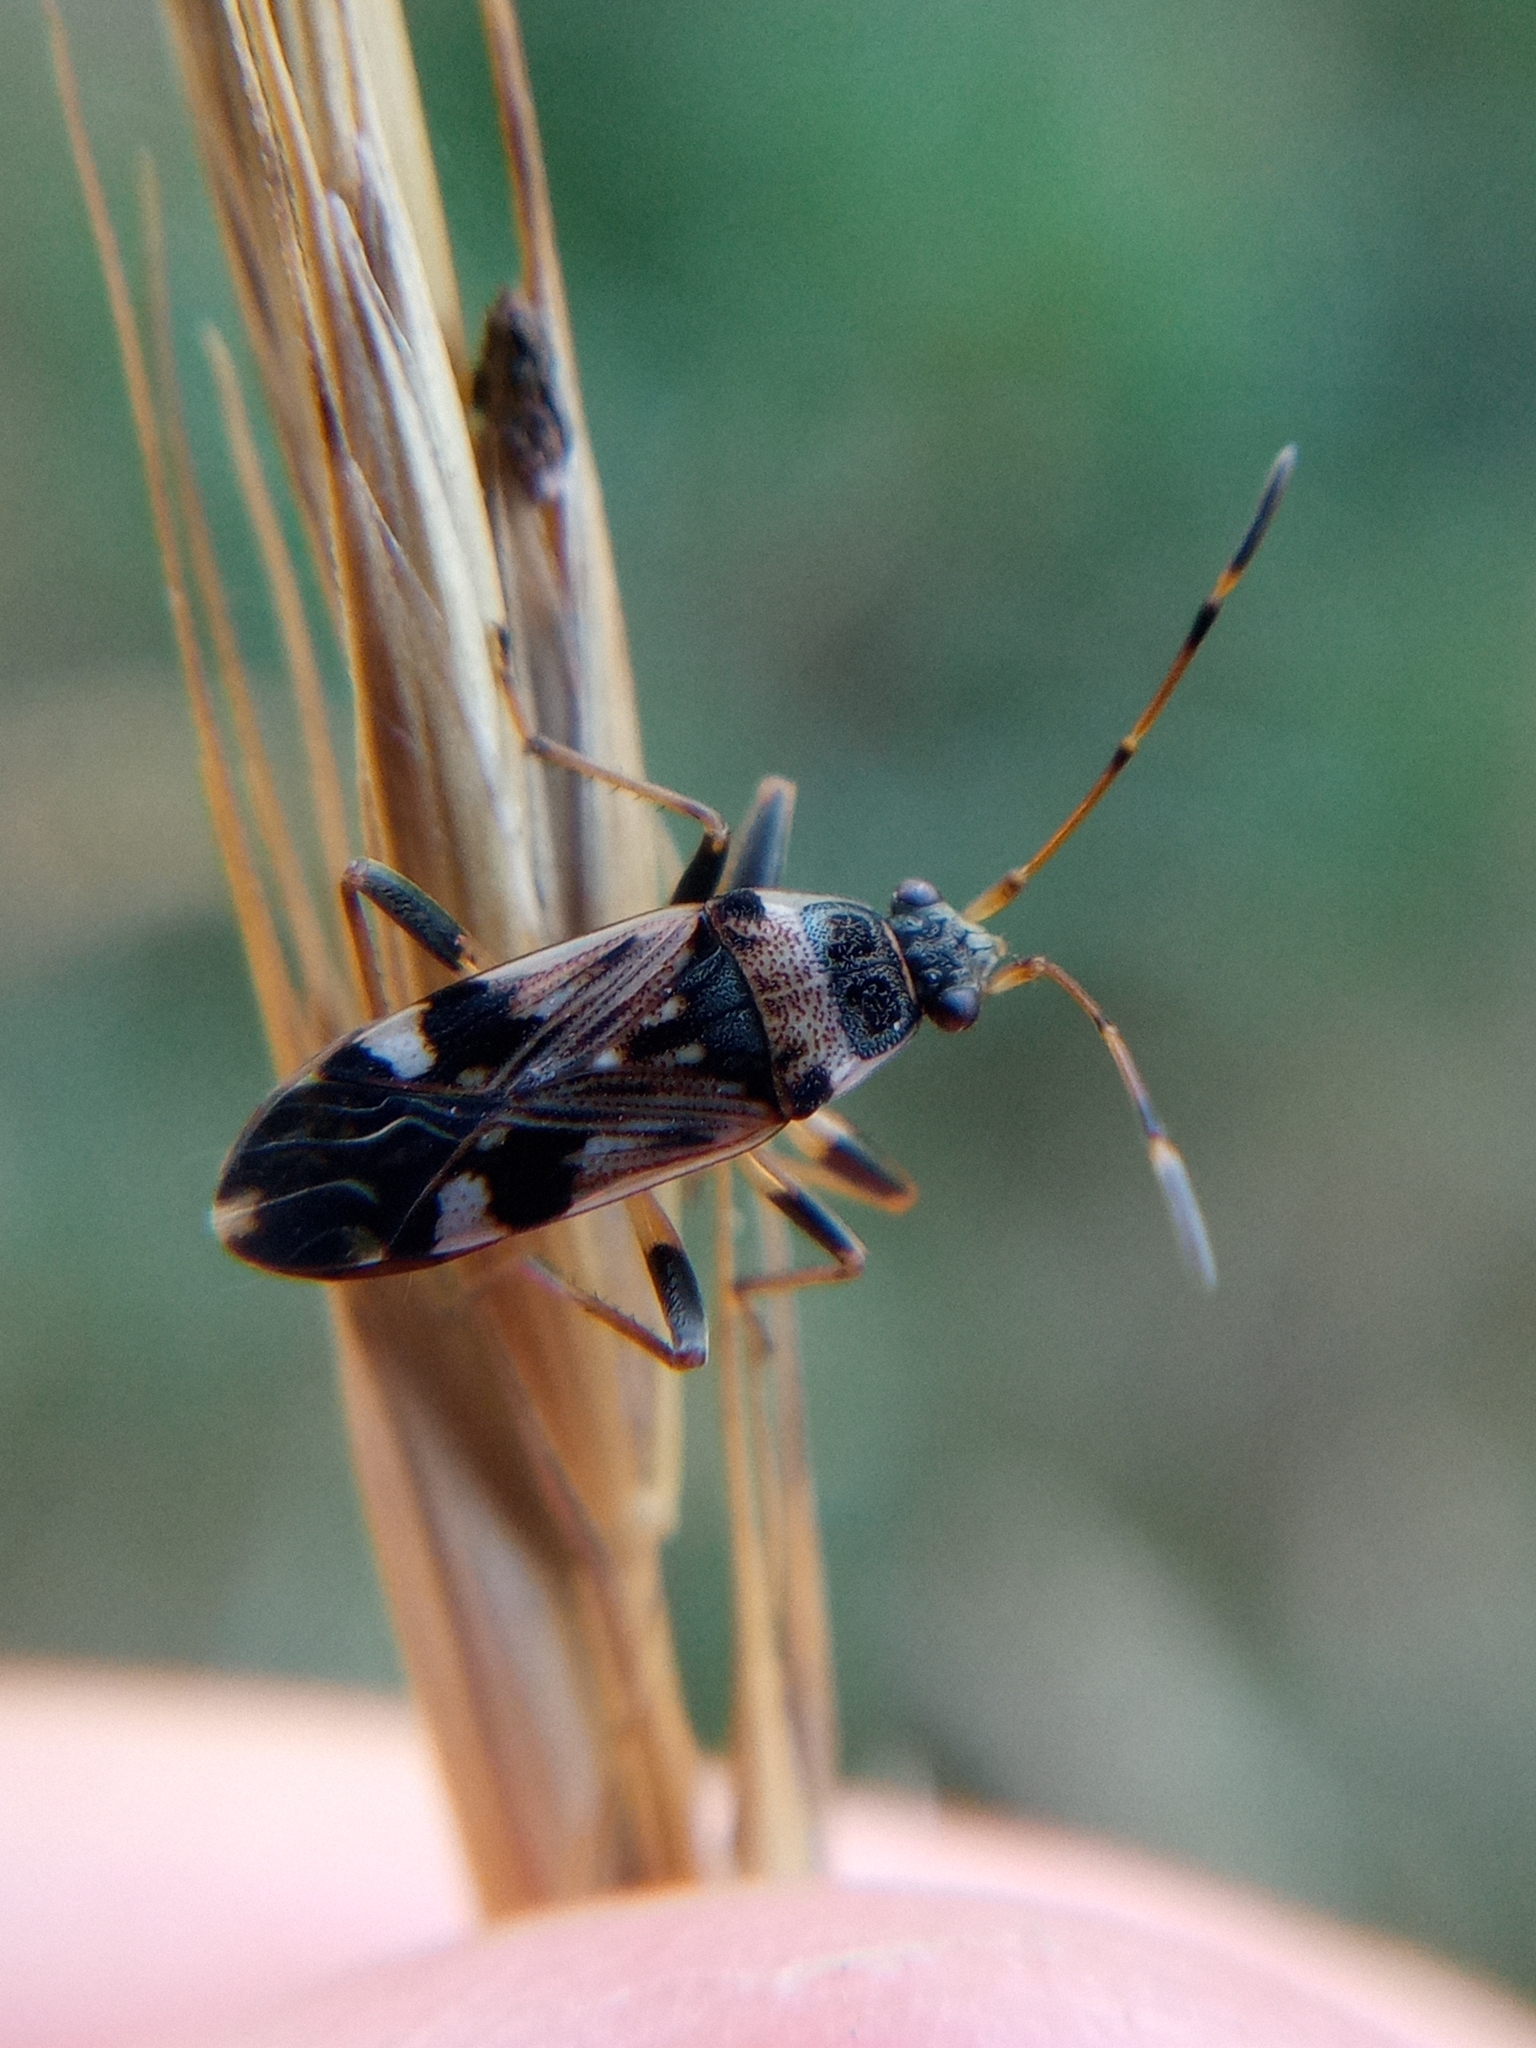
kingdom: Animalia
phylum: Arthropoda
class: Insecta
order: Hemiptera
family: Rhyparochromidae
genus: Beosus
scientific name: Beosus maritimus
